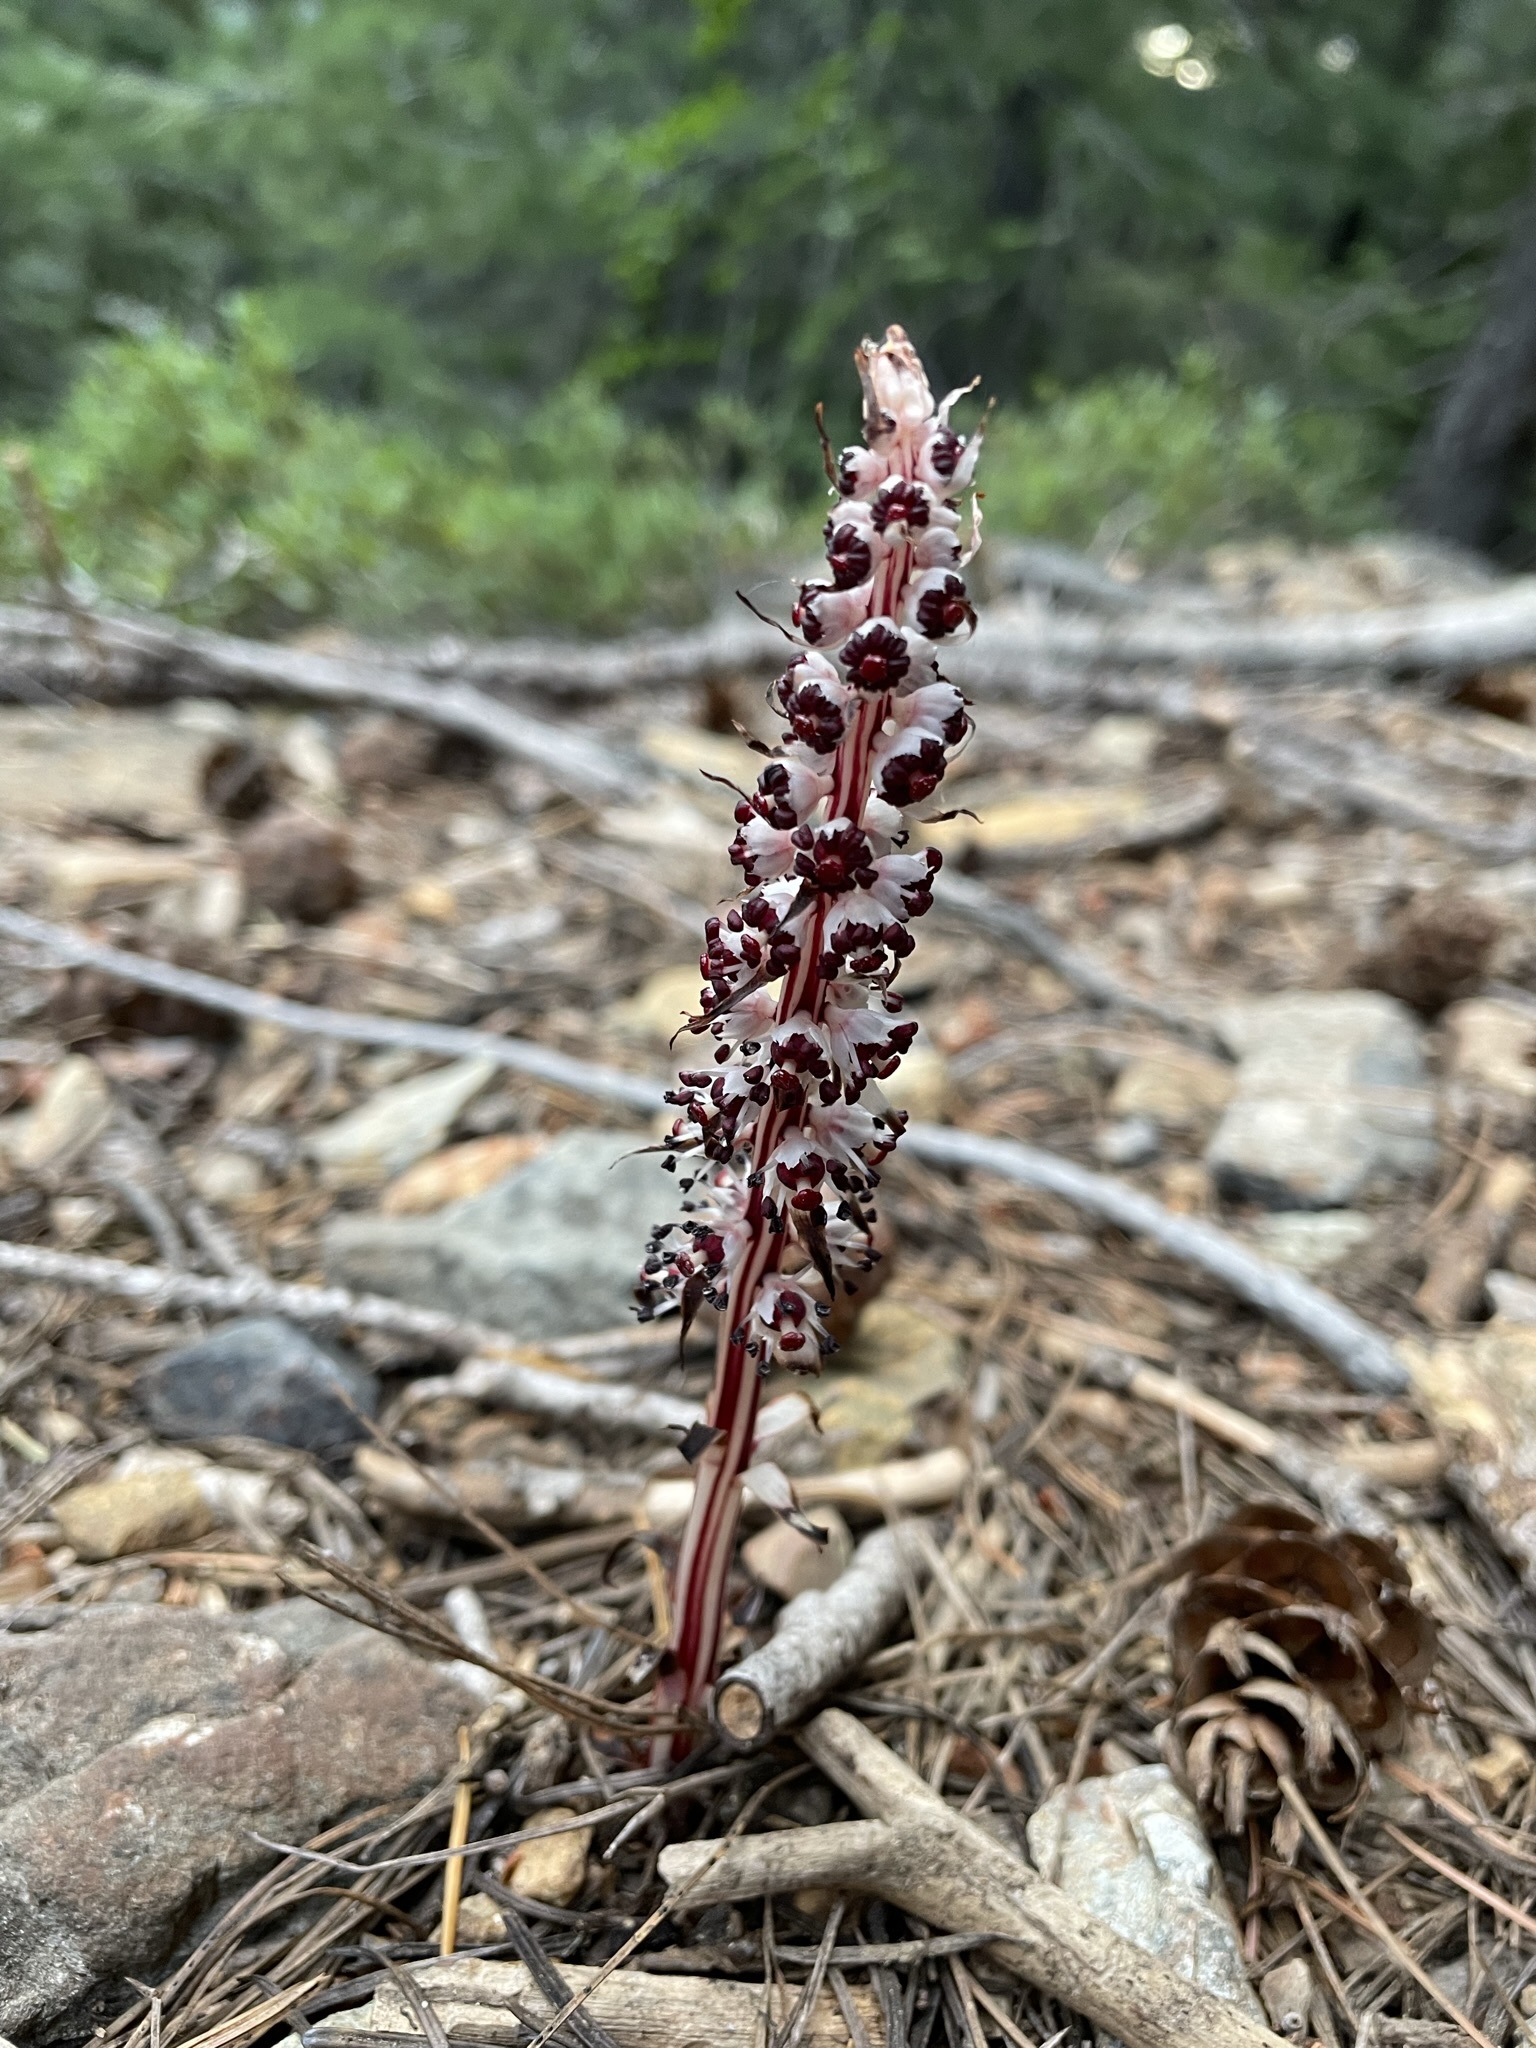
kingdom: Plantae
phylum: Tracheophyta
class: Magnoliopsida
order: Ericales
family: Ericaceae
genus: Allotropa
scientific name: Allotropa virgata
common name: Candy-striped allotropa
